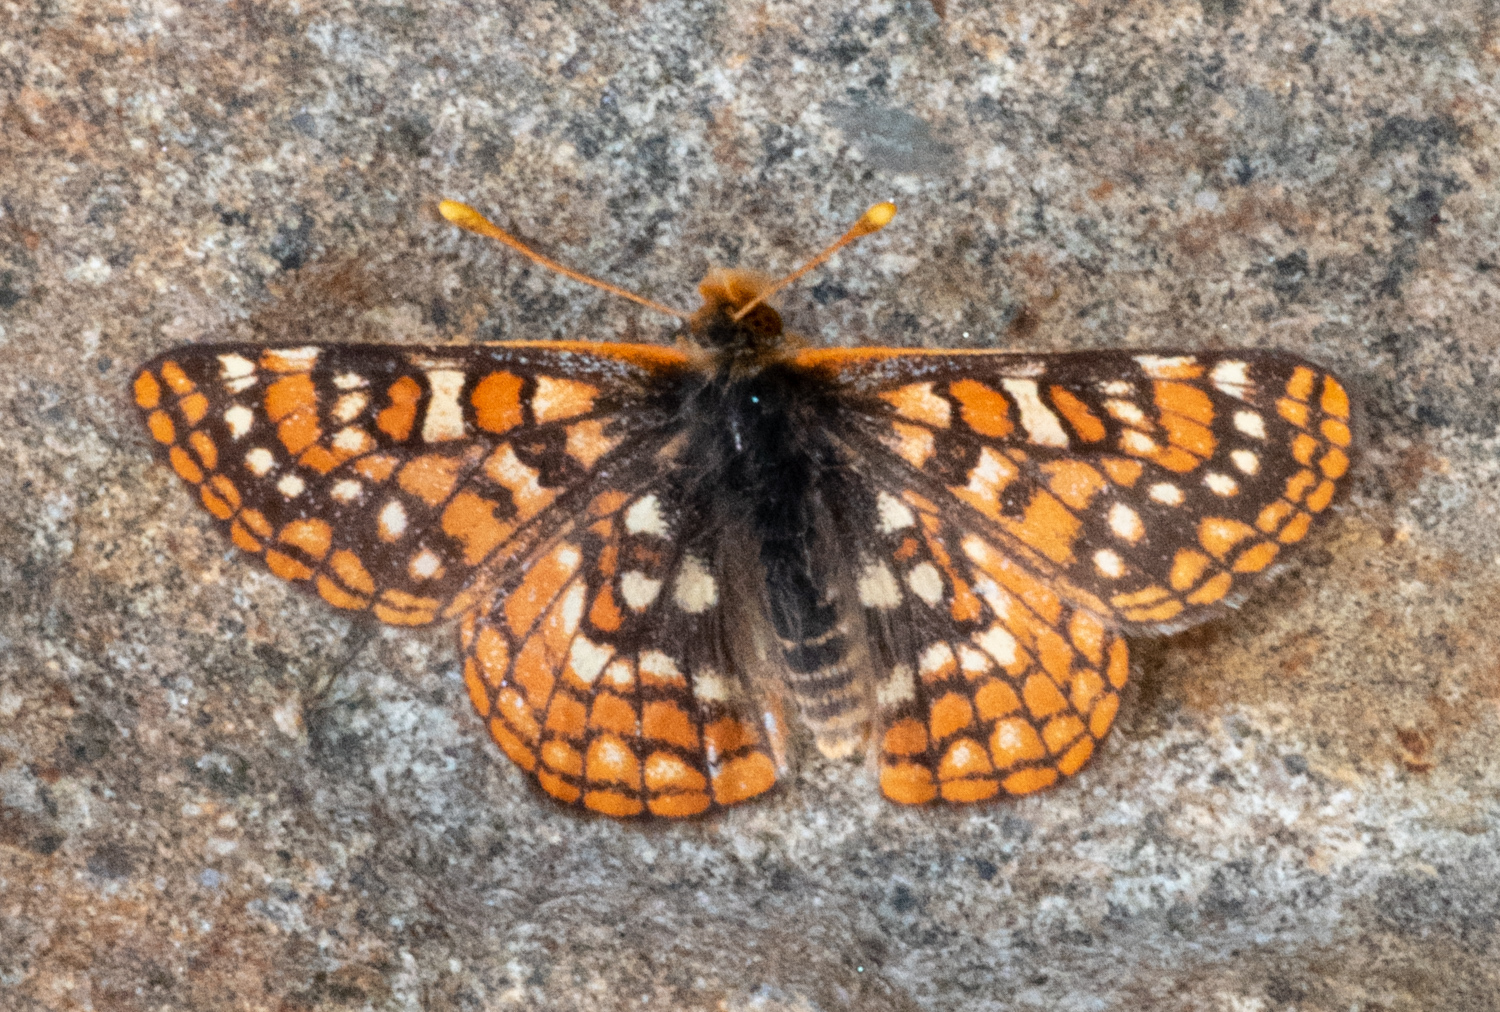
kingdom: Animalia
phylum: Arthropoda
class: Insecta
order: Lepidoptera
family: Nymphalidae
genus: Occidryas
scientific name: Occidryas editha
